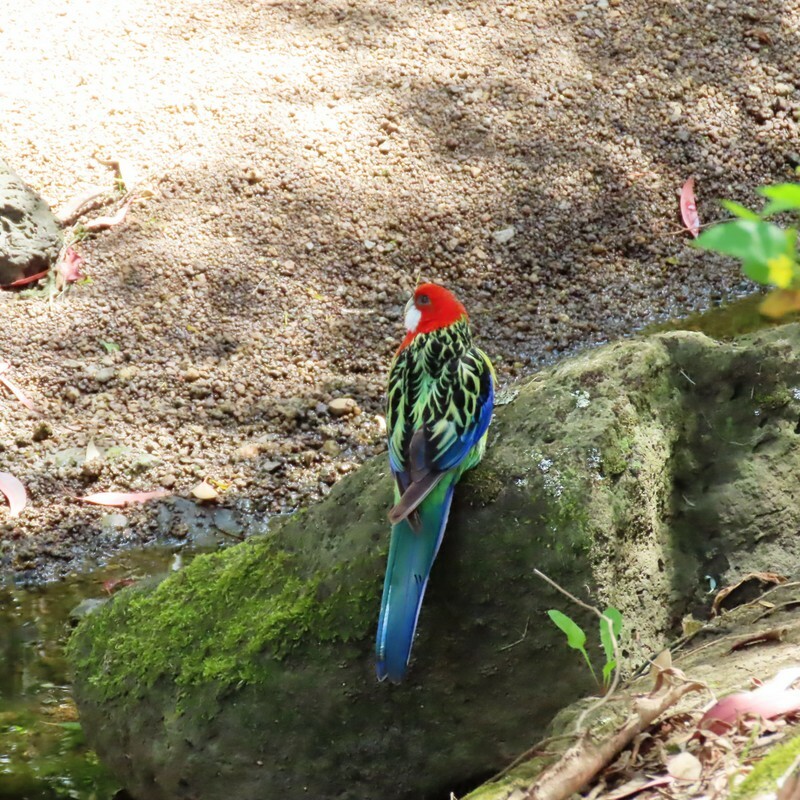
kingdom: Animalia
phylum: Chordata
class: Aves
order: Psittaciformes
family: Psittacidae
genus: Platycercus
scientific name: Platycercus eximius
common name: Eastern rosella
